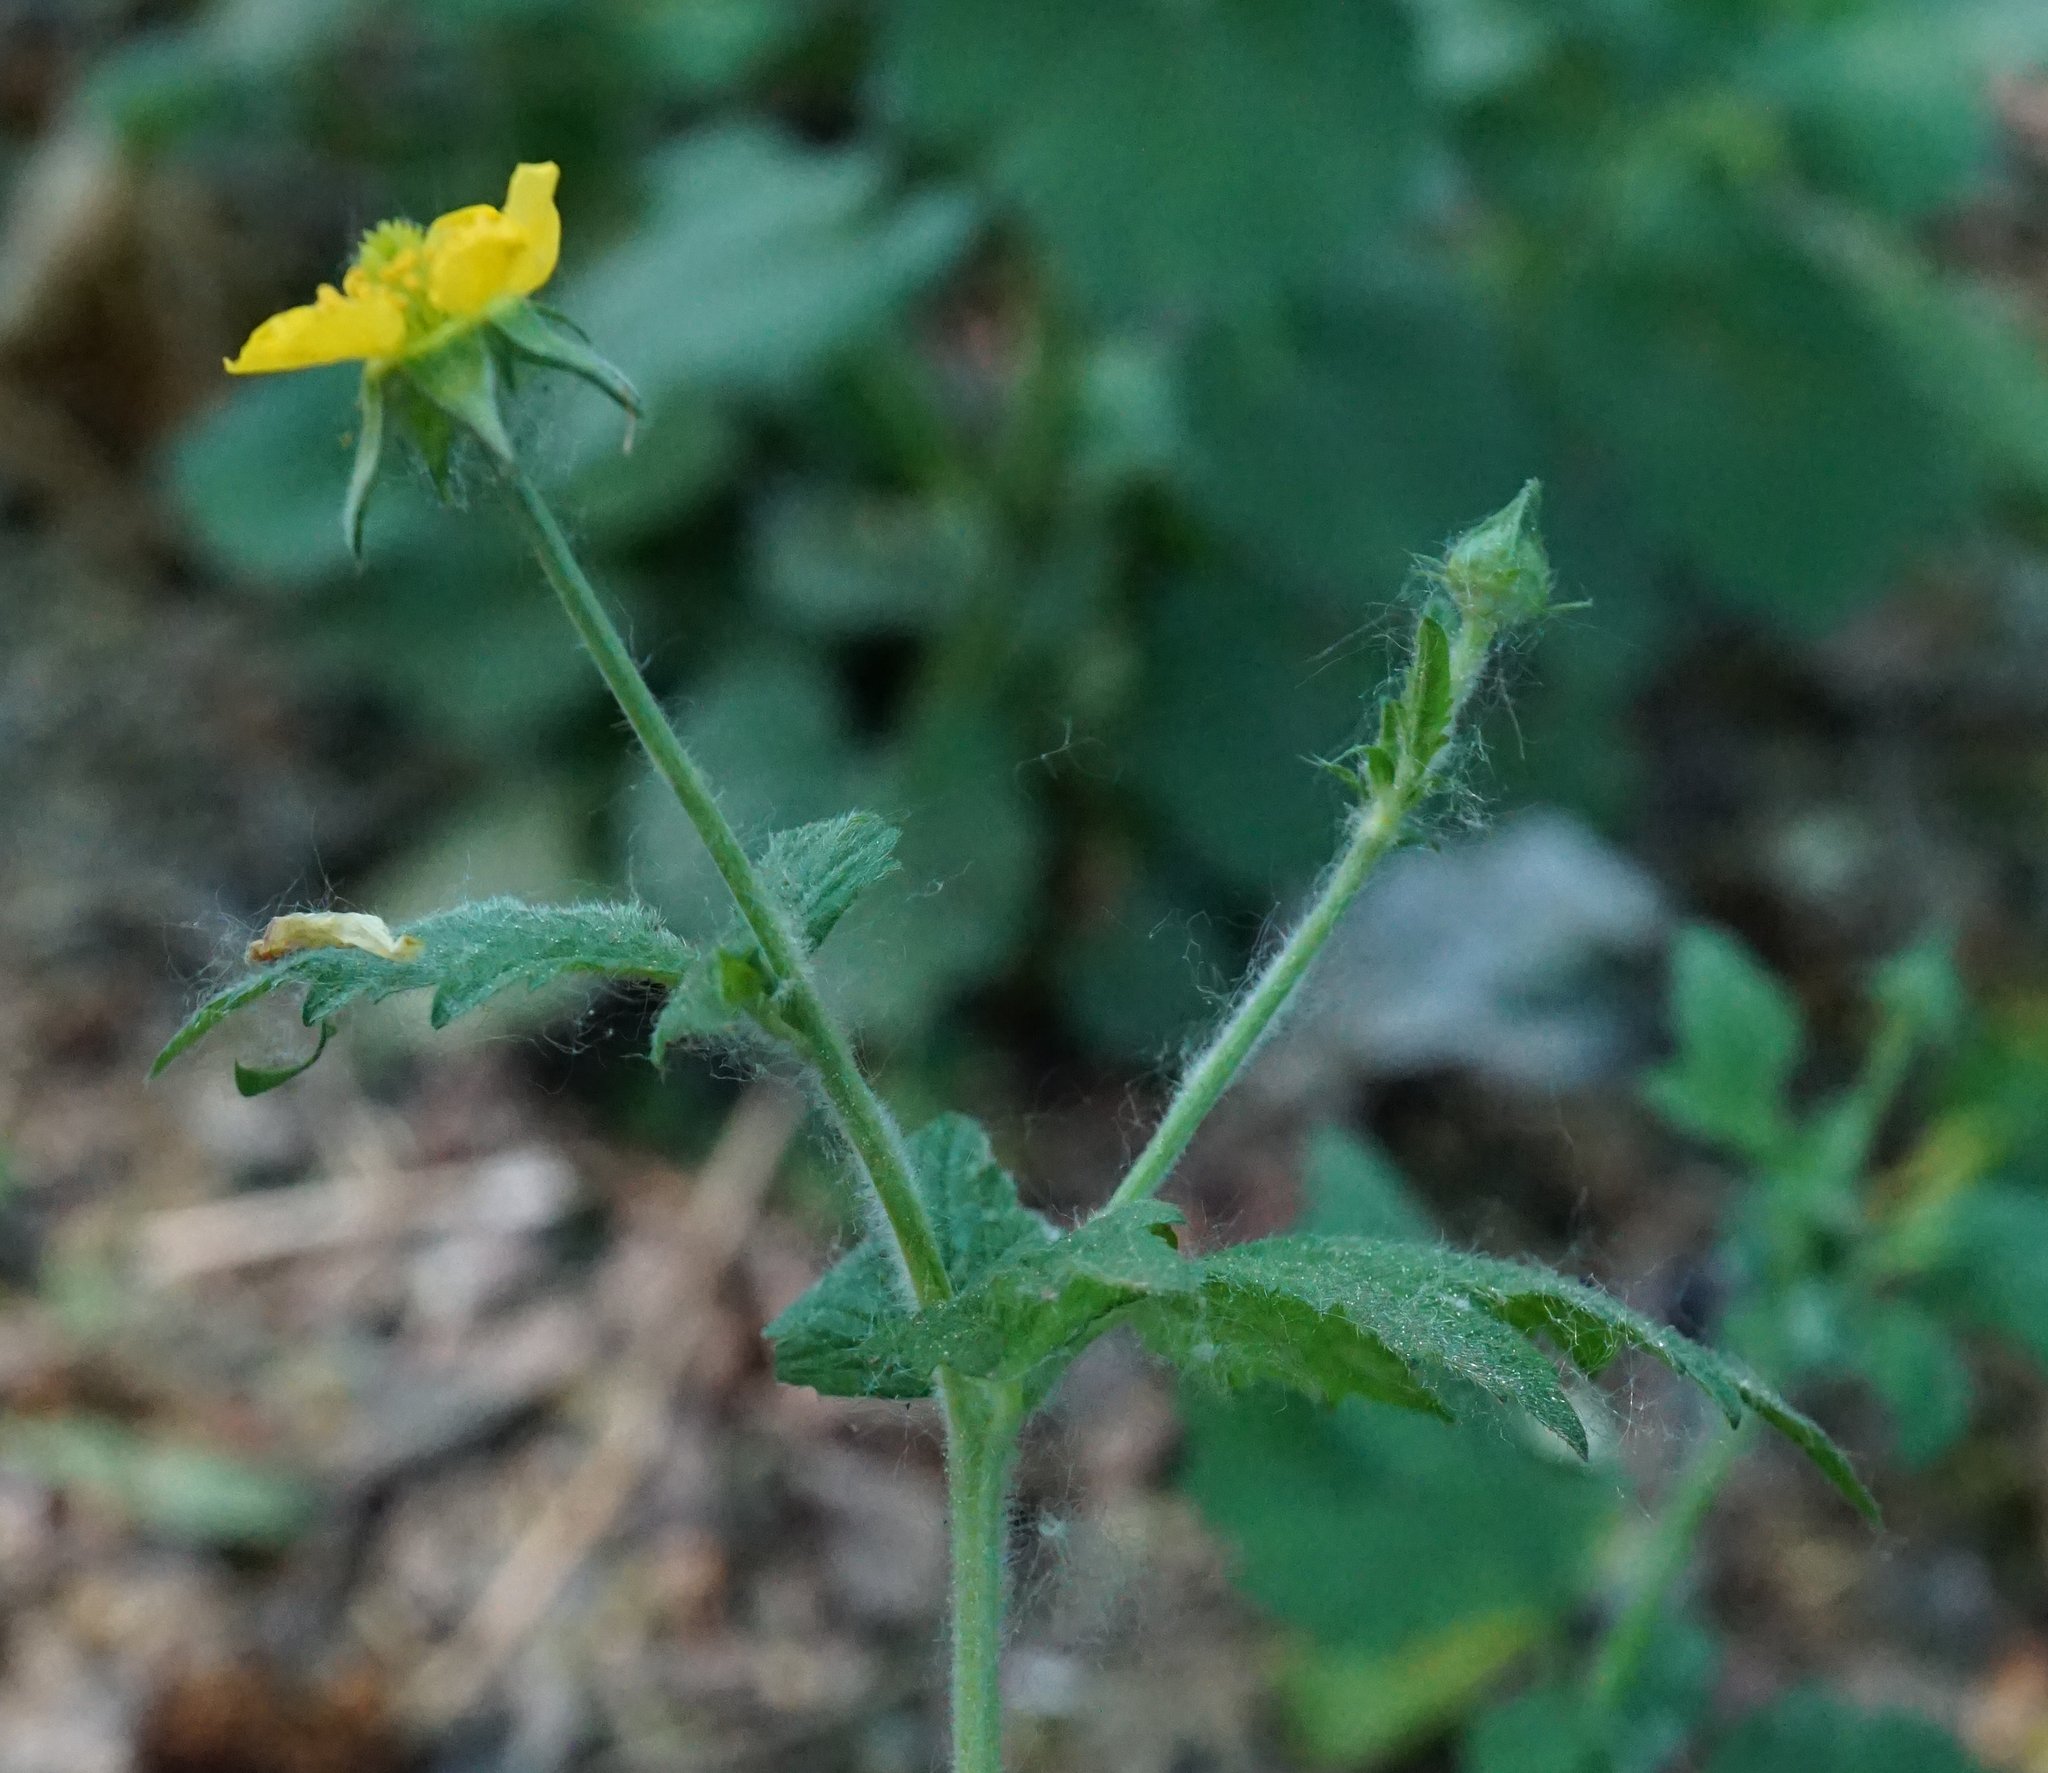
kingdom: Plantae
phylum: Tracheophyta
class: Magnoliopsida
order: Rosales
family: Rosaceae
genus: Geum
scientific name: Geum urbanum
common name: Wood avens
